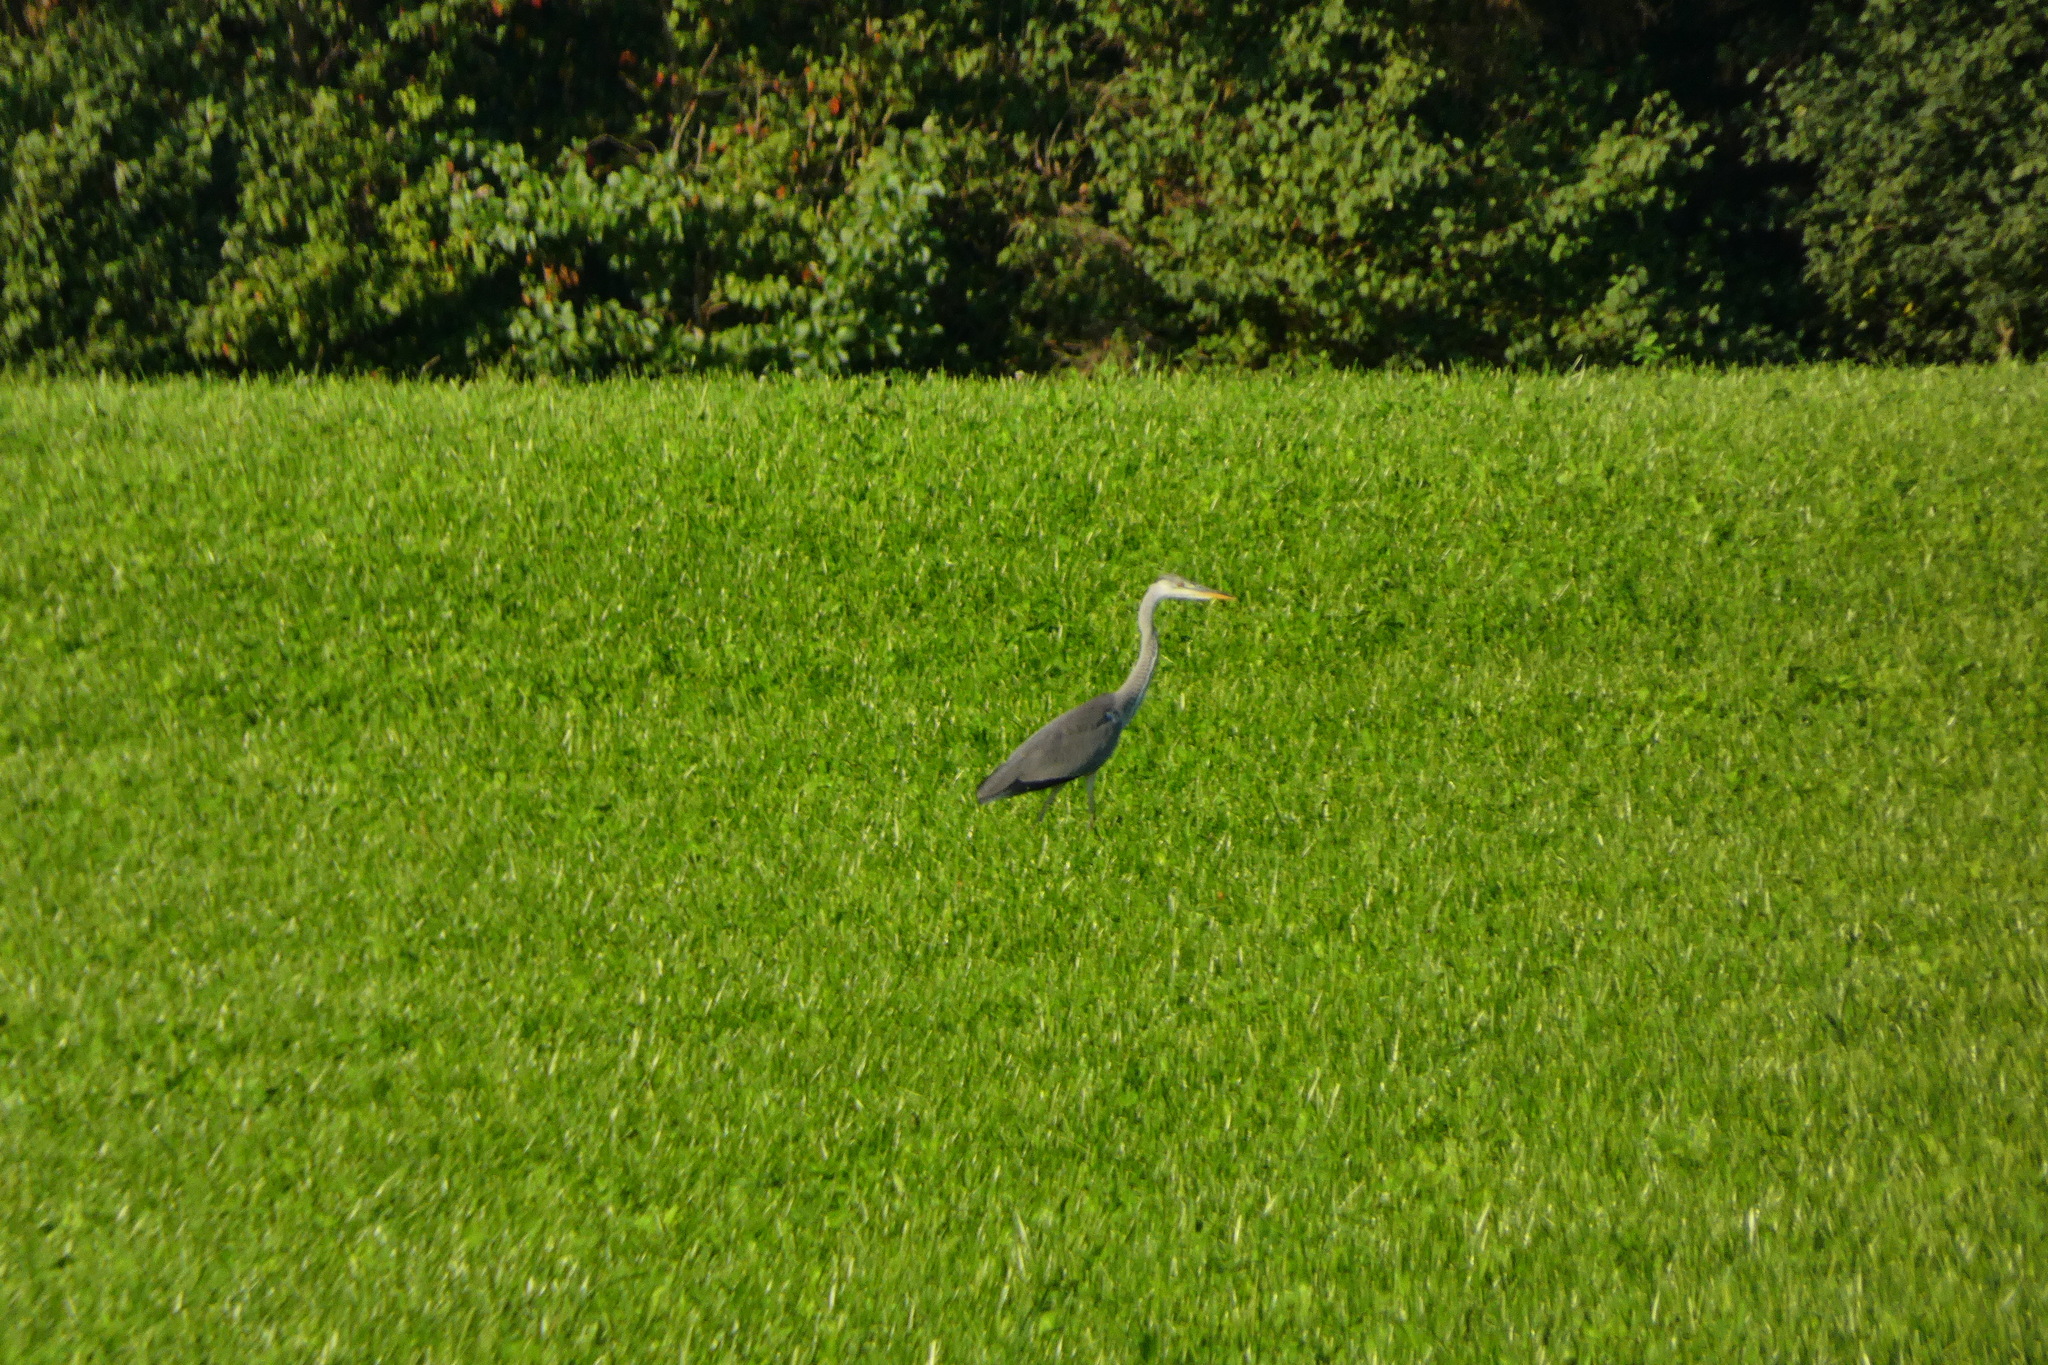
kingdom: Animalia
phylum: Chordata
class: Aves
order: Pelecaniformes
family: Ardeidae
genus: Ardea
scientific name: Ardea cinerea
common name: Grey heron
